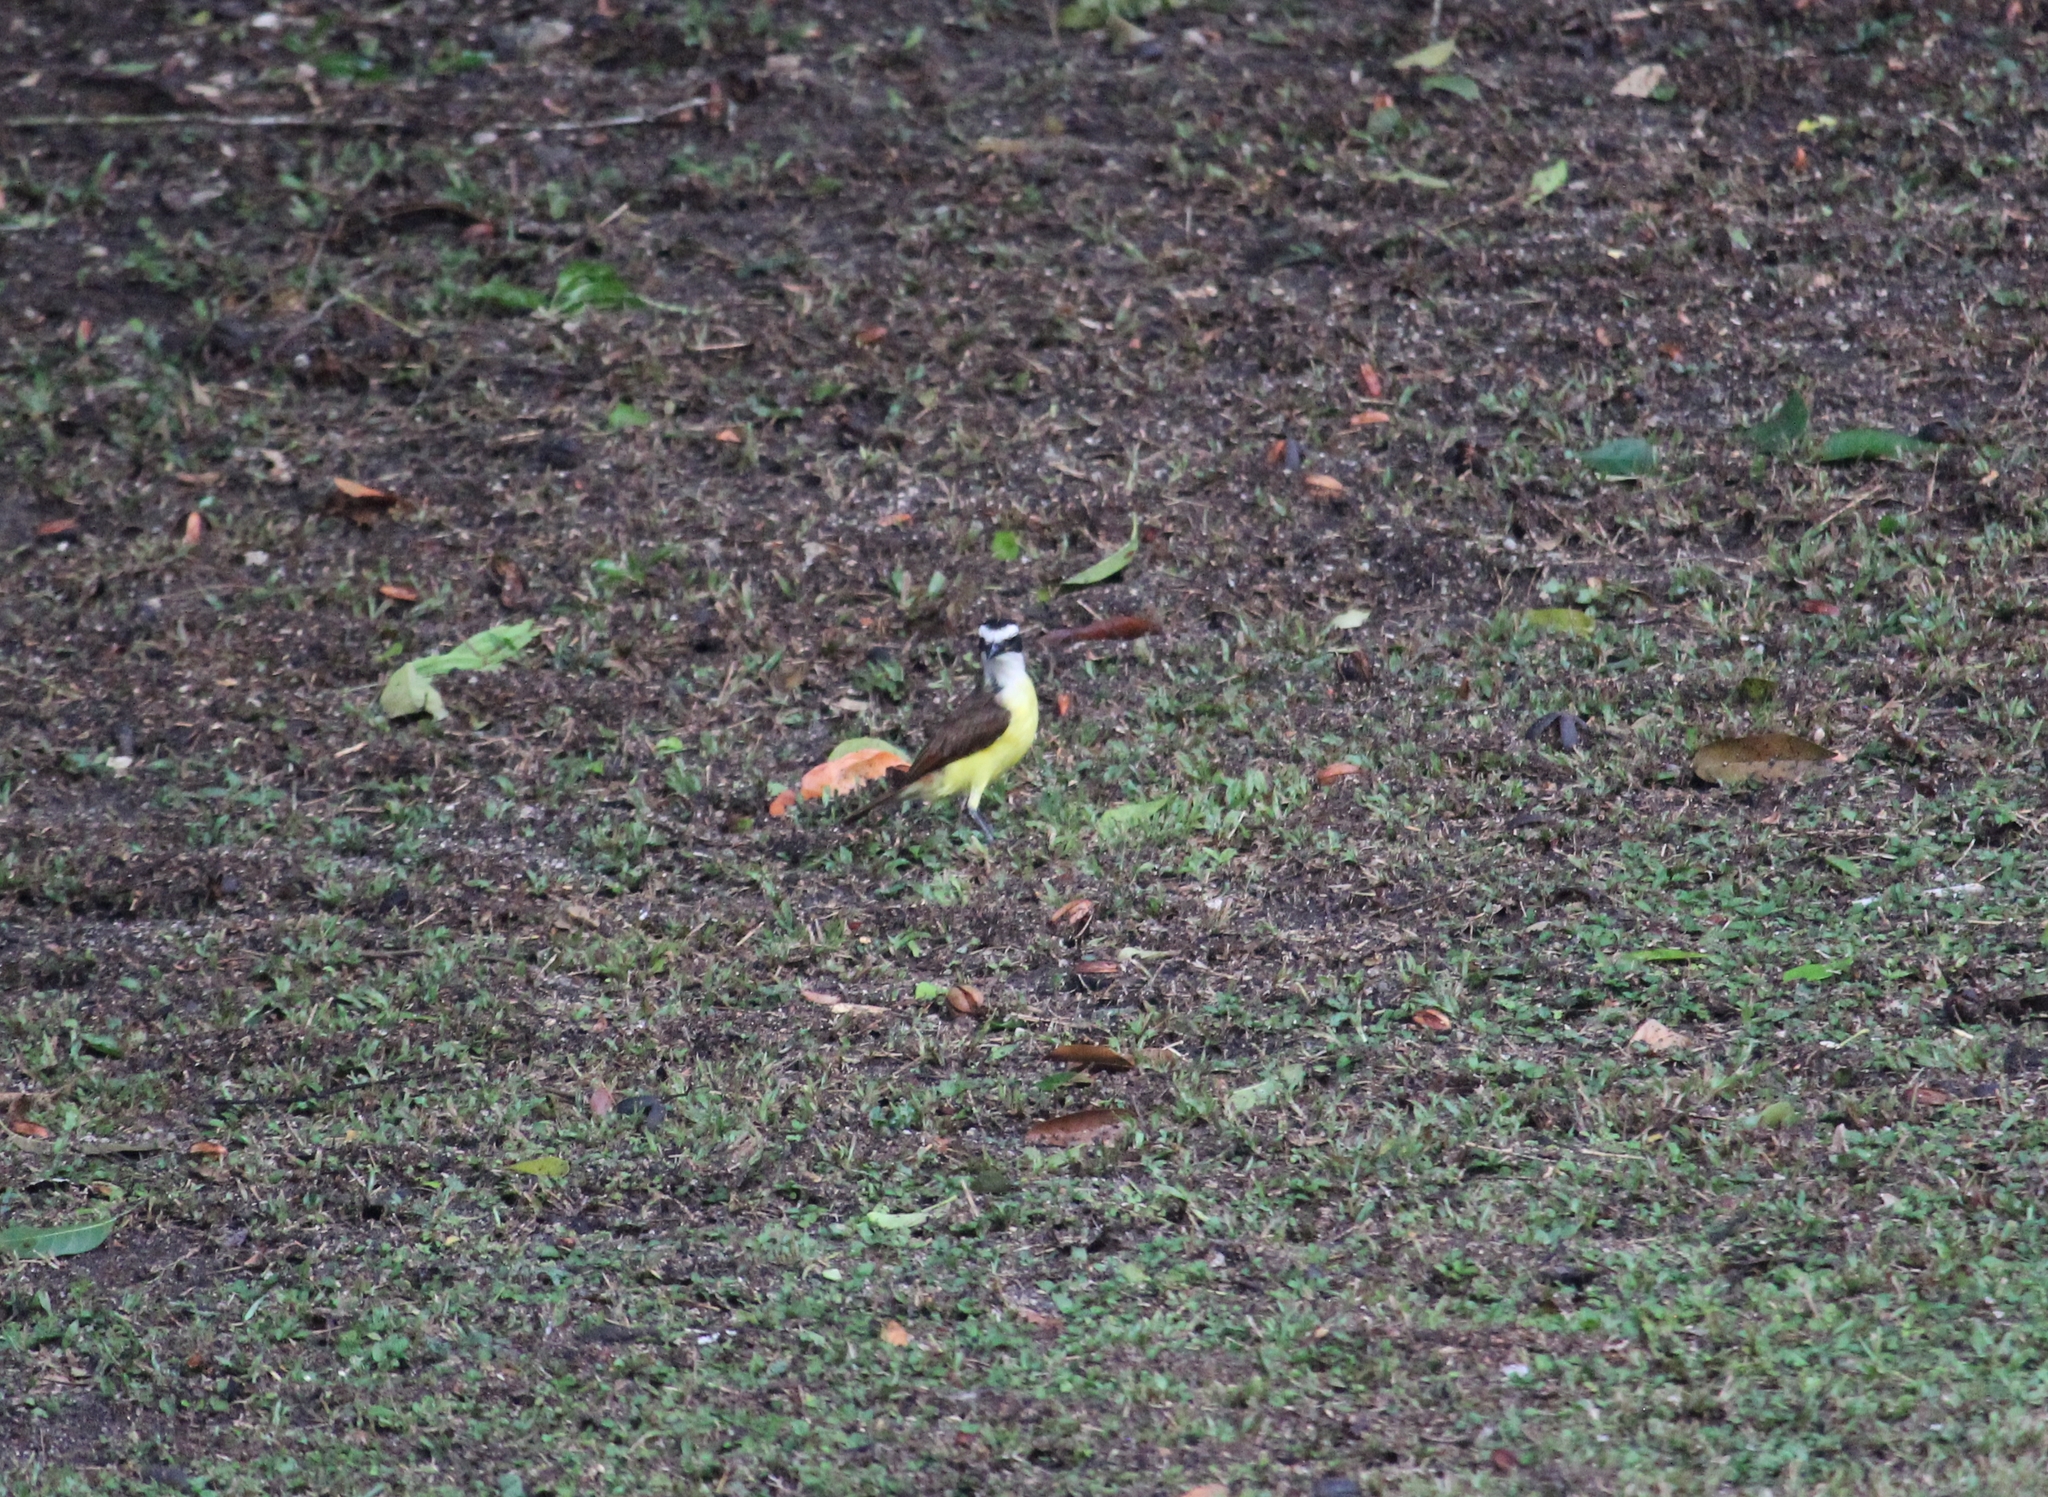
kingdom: Animalia
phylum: Chordata
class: Aves
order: Passeriformes
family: Tyrannidae
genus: Pitangus
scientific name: Pitangus sulphuratus
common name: Great kiskadee
